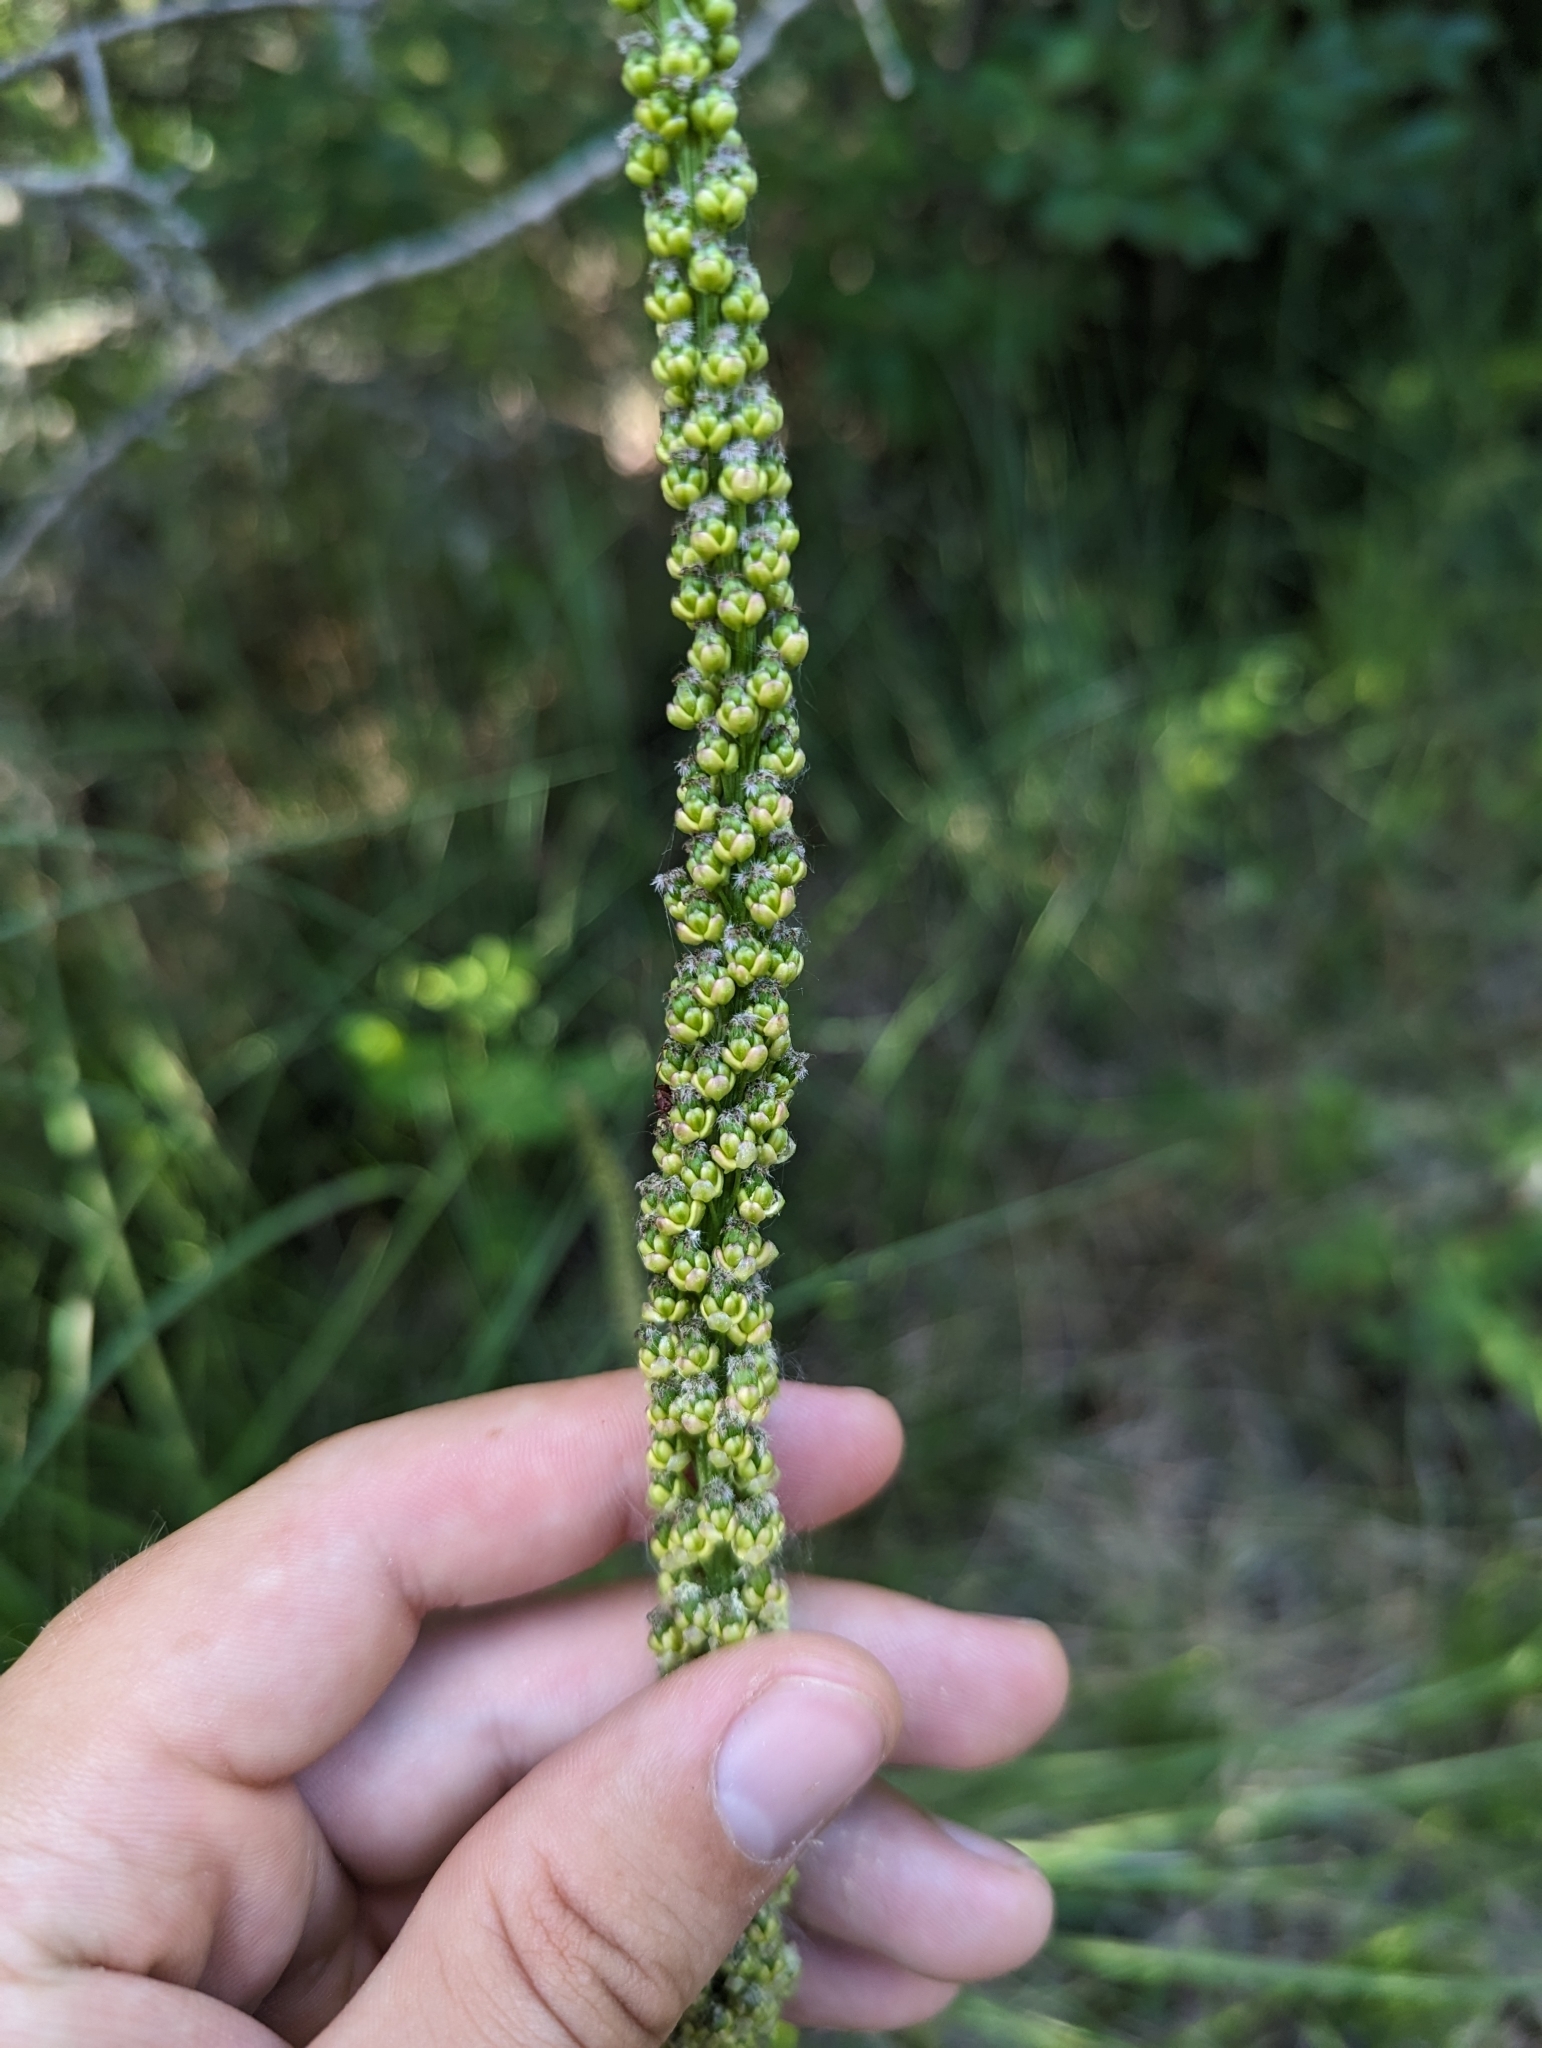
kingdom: Plantae
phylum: Tracheophyta
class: Liliopsida
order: Alismatales
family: Juncaginaceae
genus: Triglochin
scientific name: Triglochin maritima
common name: Sea arrowgrass
